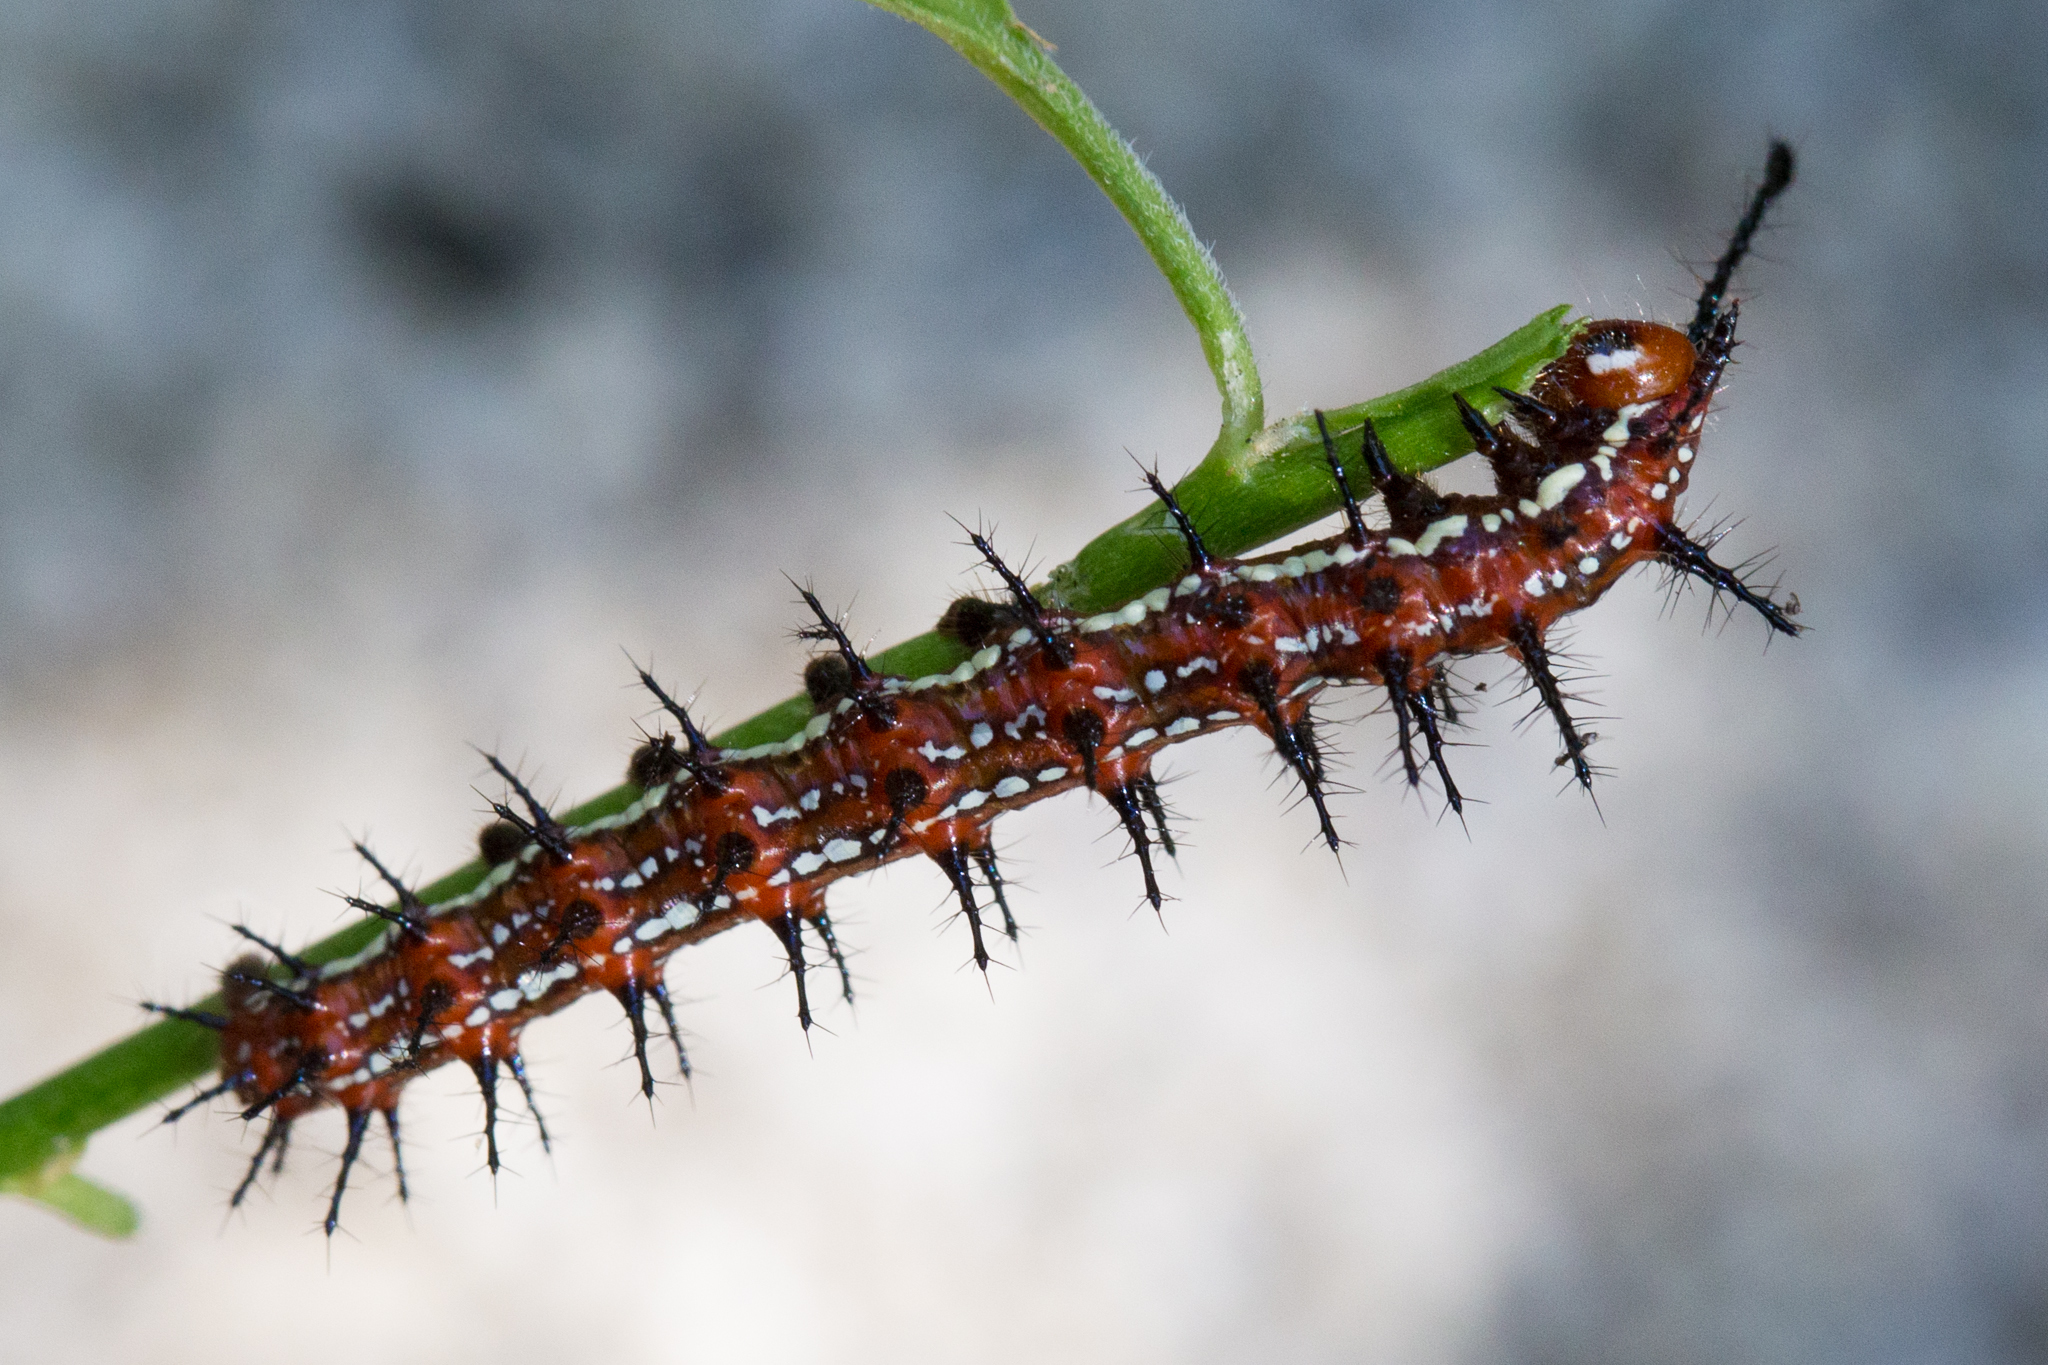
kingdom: Animalia
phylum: Arthropoda
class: Insecta
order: Lepidoptera
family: Nymphalidae
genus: Euptoieta
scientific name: Euptoieta hegesia
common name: Mexican fritillary
